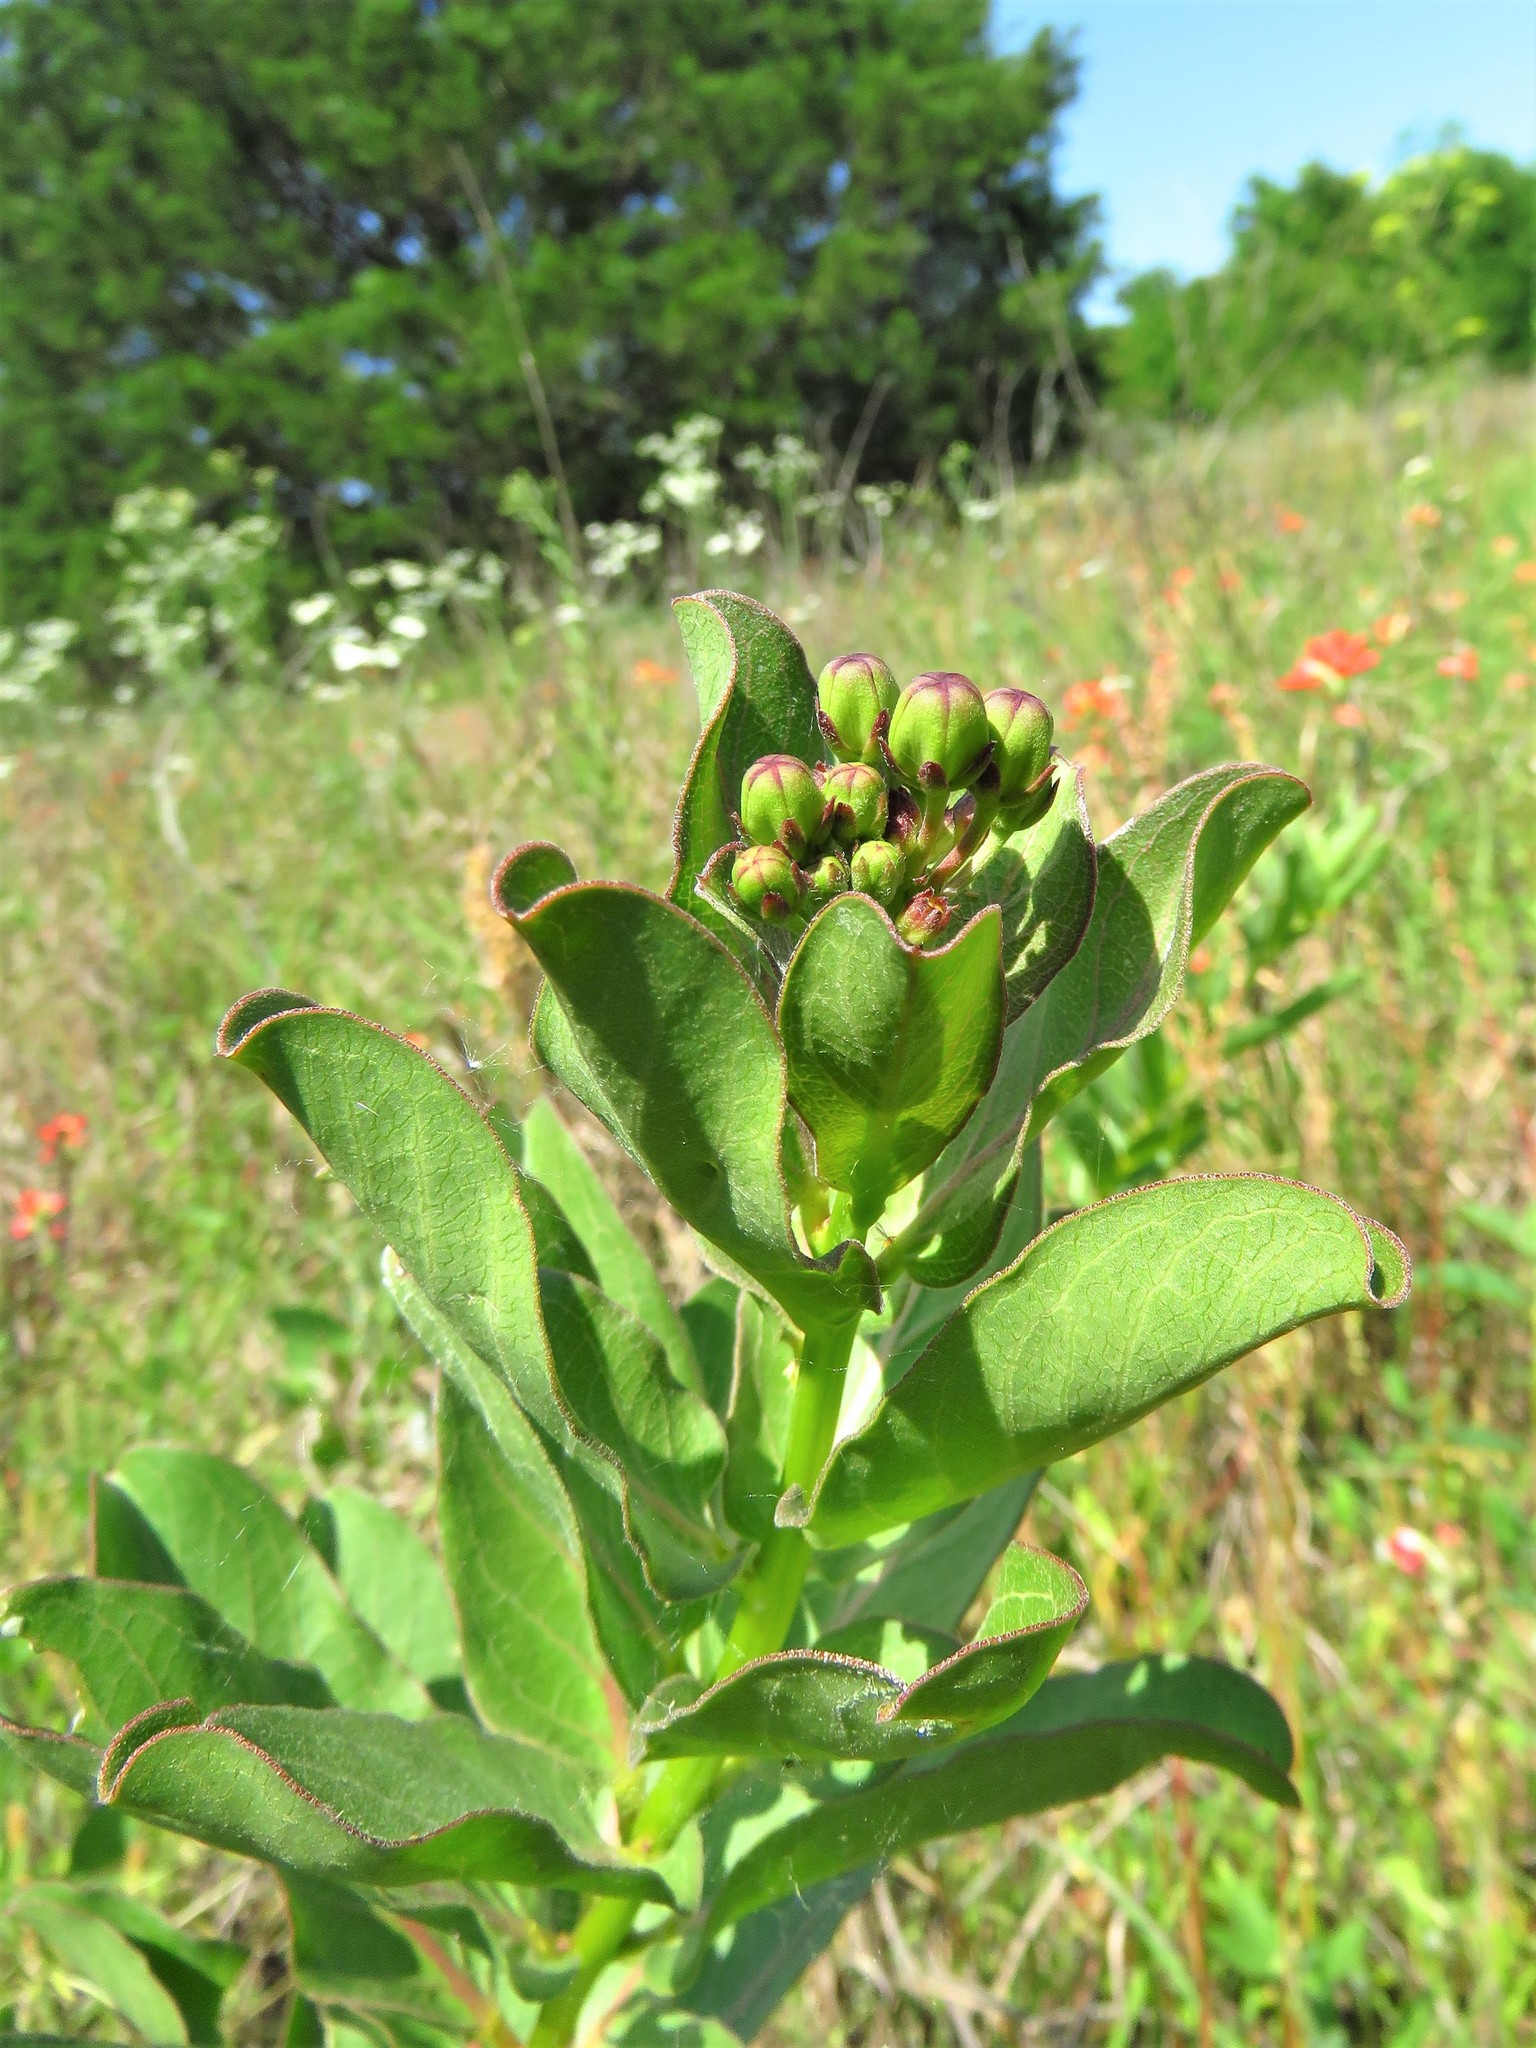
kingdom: Plantae
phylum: Tracheophyta
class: Magnoliopsida
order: Gentianales
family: Apocynaceae
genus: Asclepias
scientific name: Asclepias viridis
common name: Antelope-horns
